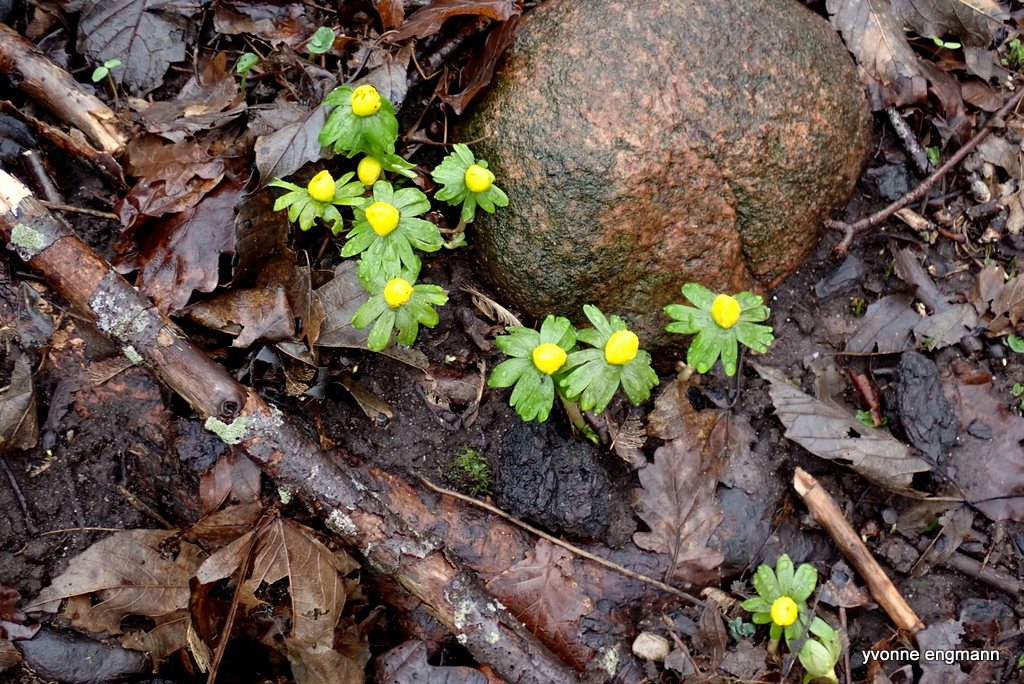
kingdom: Plantae
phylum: Tracheophyta
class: Magnoliopsida
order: Ranunculales
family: Ranunculaceae
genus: Eranthis
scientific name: Eranthis hyemalis
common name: Winter aconite
